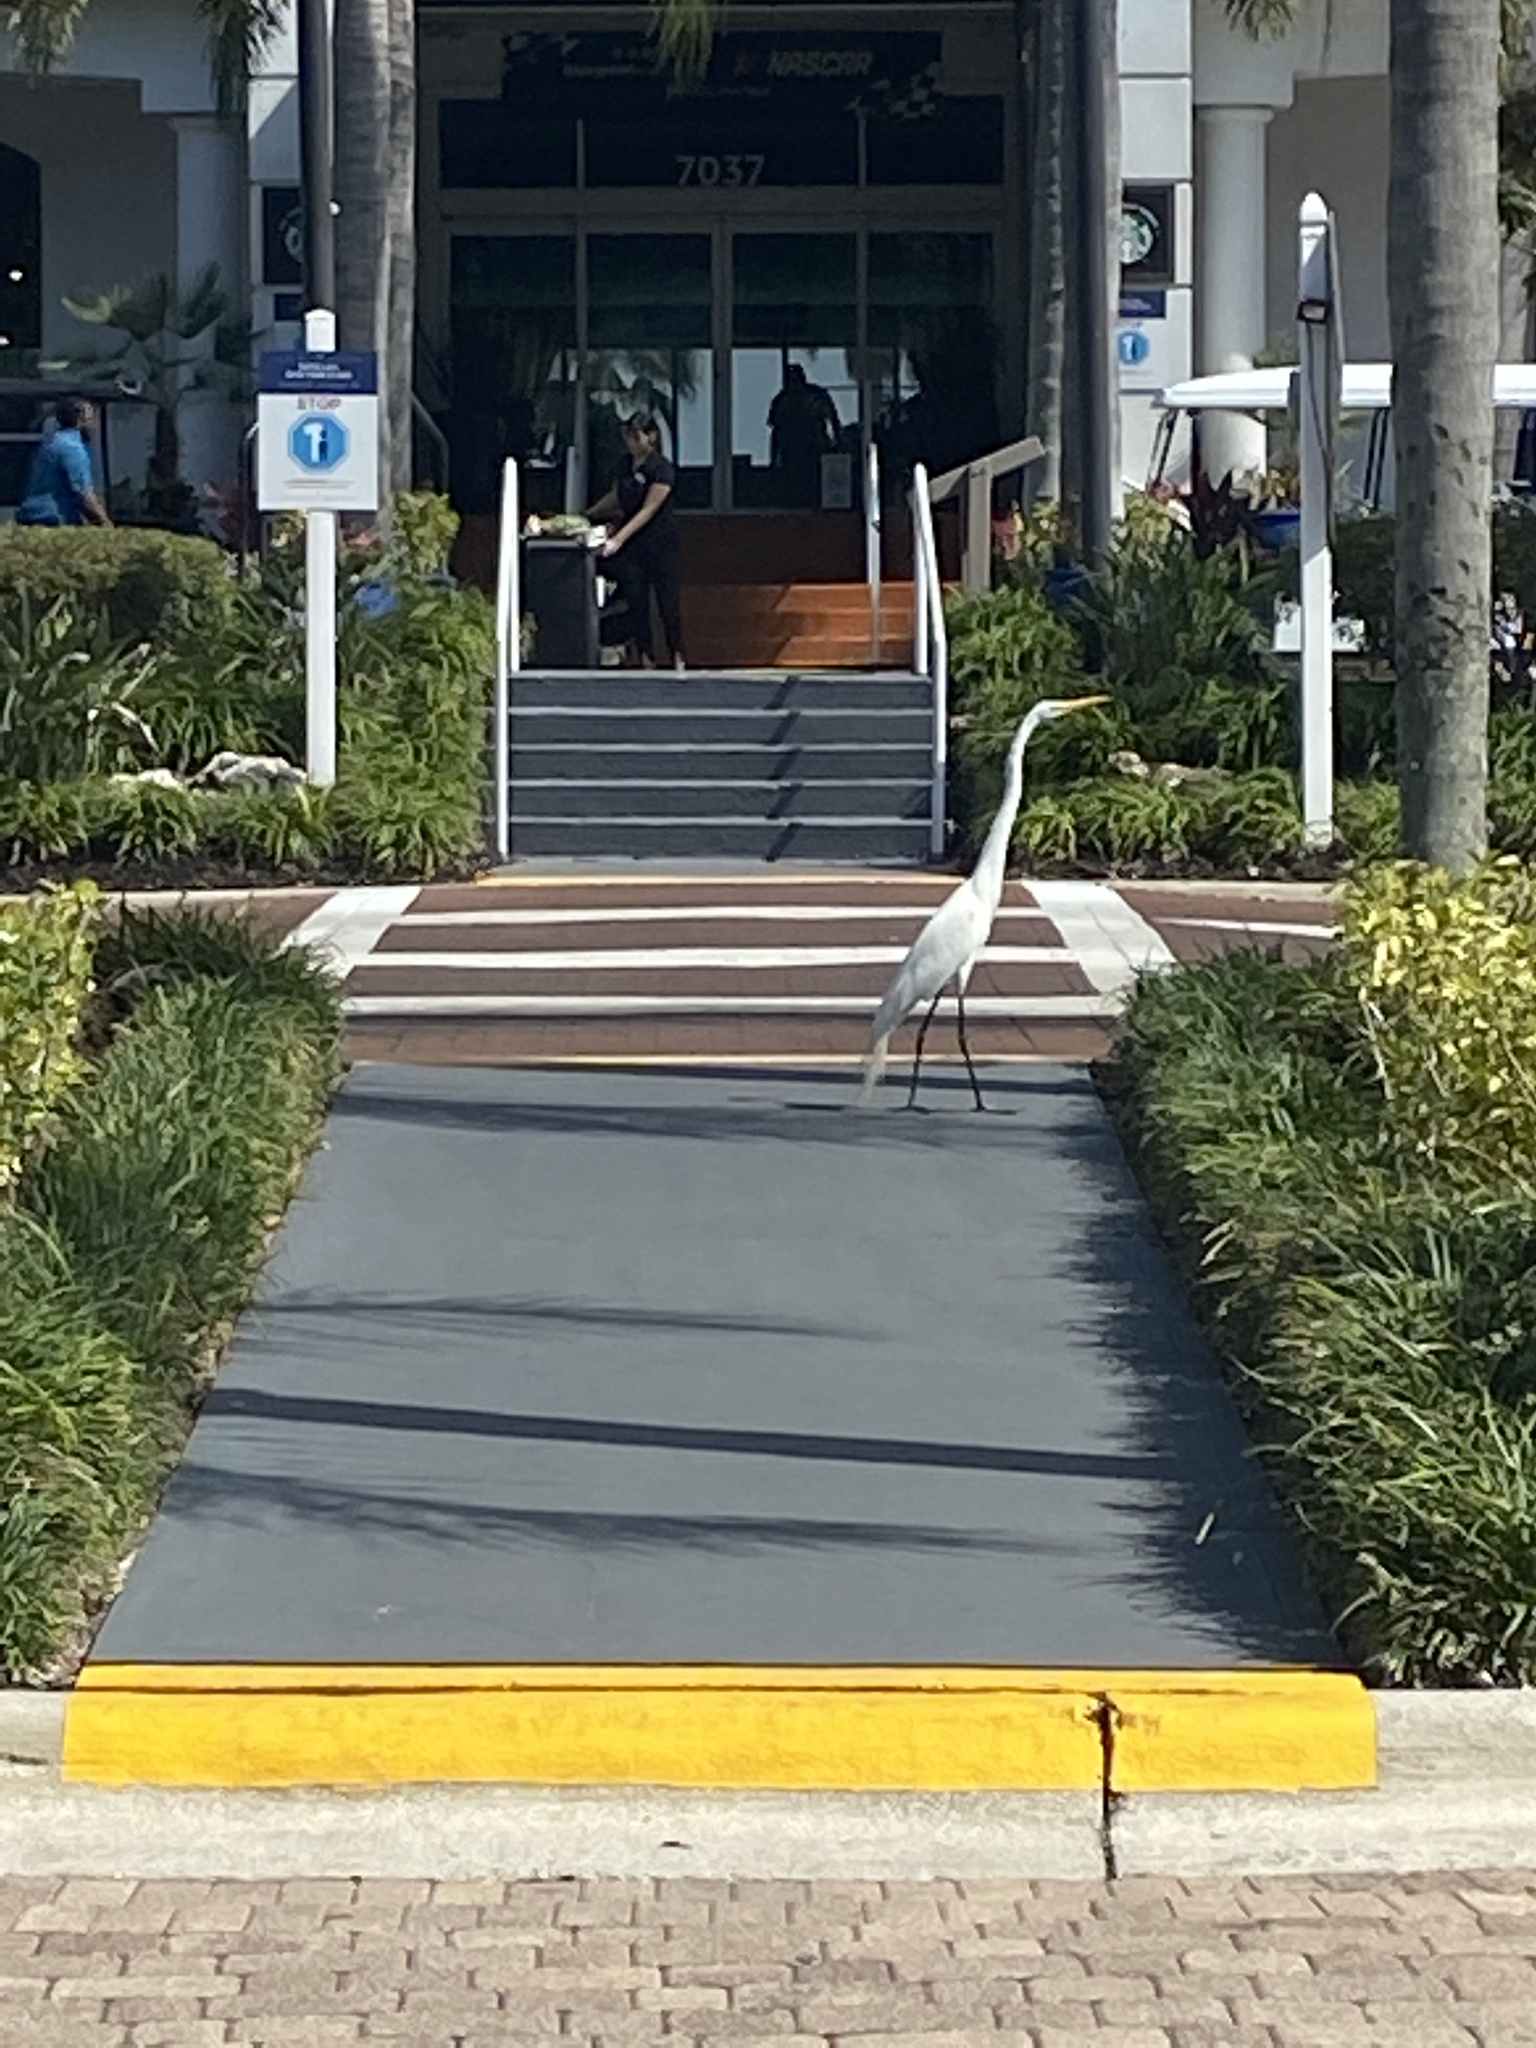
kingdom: Animalia
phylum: Chordata
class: Aves
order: Pelecaniformes
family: Ardeidae
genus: Ardea
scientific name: Ardea alba
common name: Great egret
